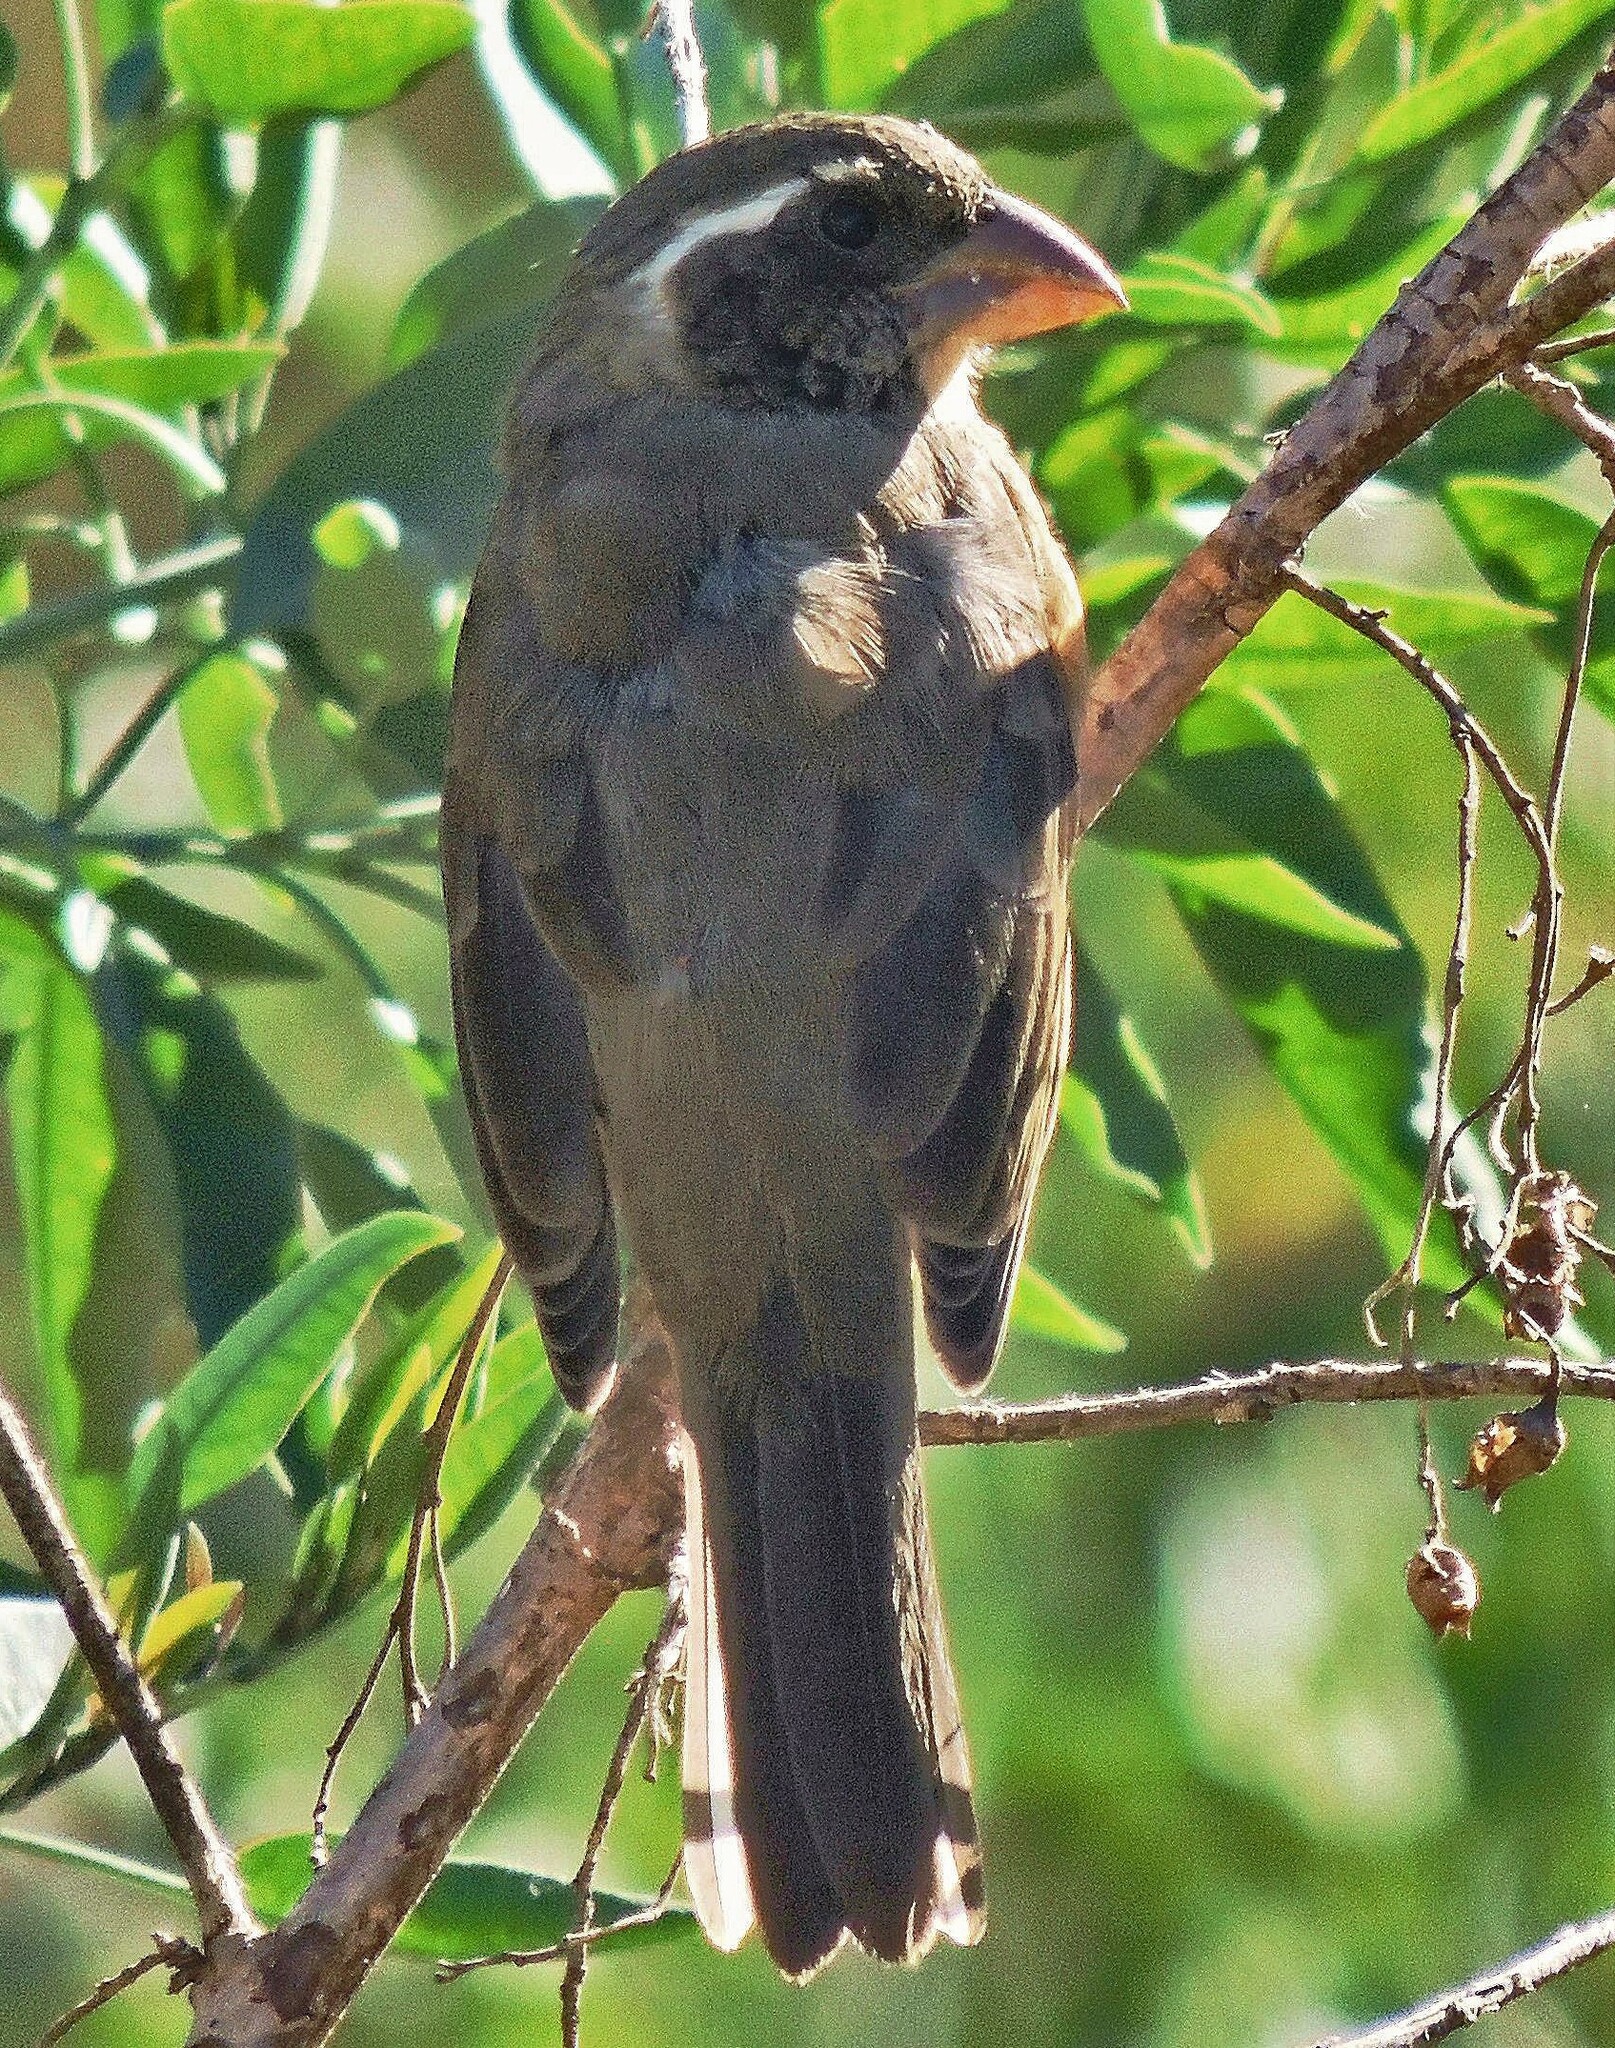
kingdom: Animalia
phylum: Chordata
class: Aves
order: Passeriformes
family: Thraupidae
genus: Saltator
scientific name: Saltator aurantiirostris
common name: Golden-billed saltator
